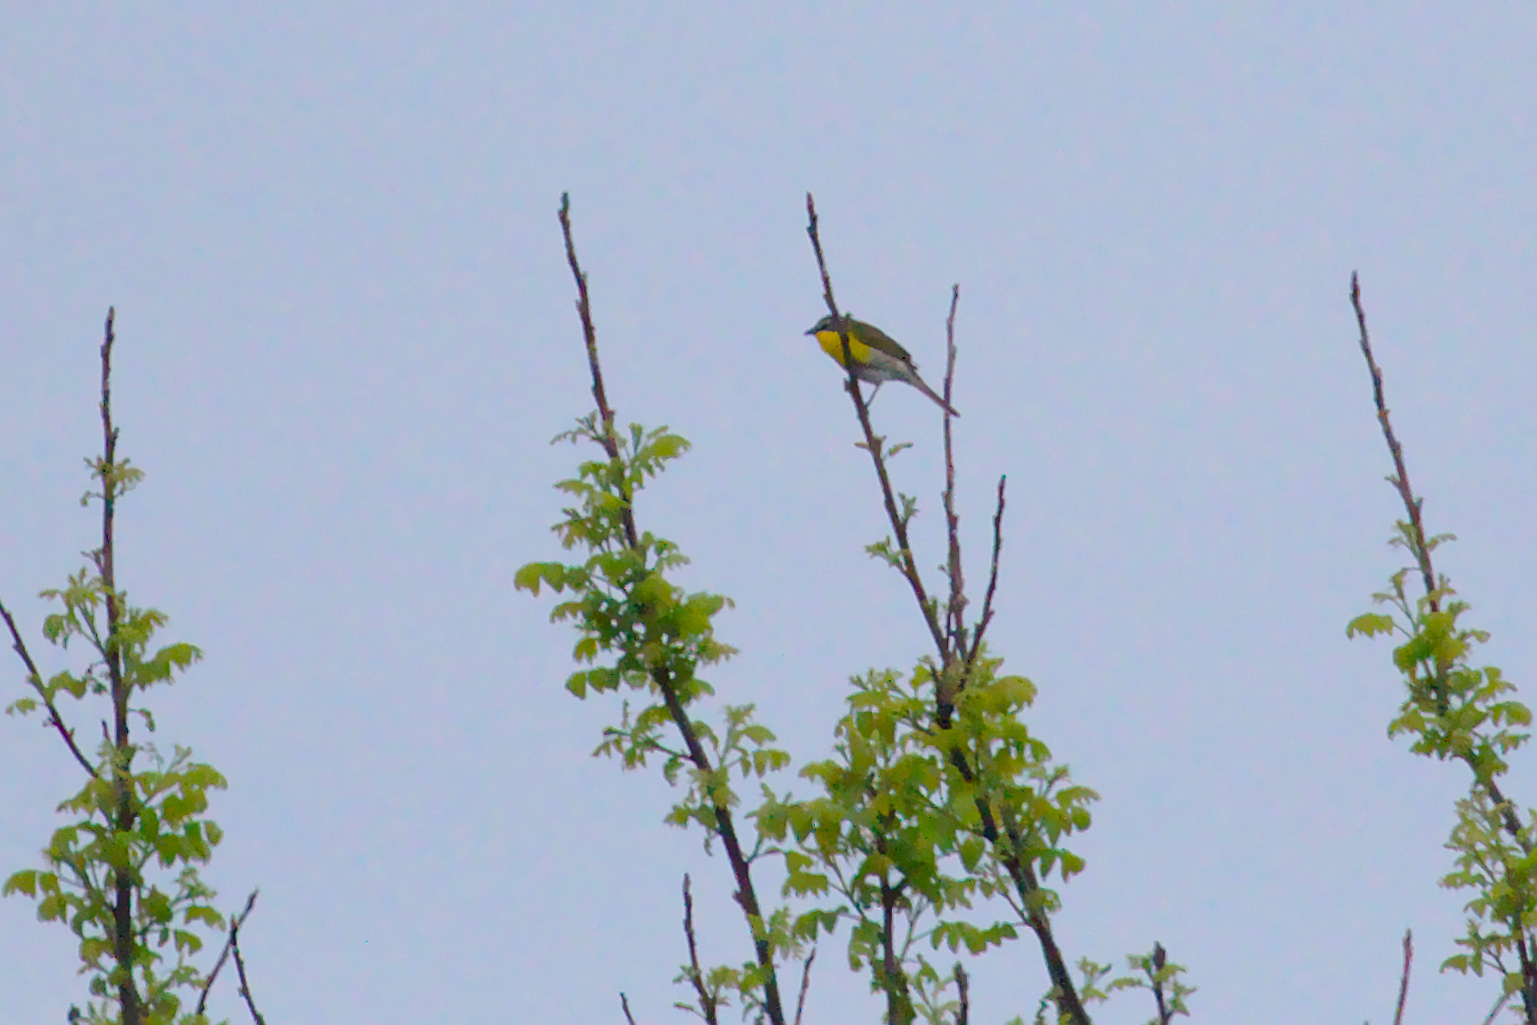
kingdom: Animalia
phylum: Chordata
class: Aves
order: Passeriformes
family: Parulidae
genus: Icteria
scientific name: Icteria virens
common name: Yellow-breasted chat
